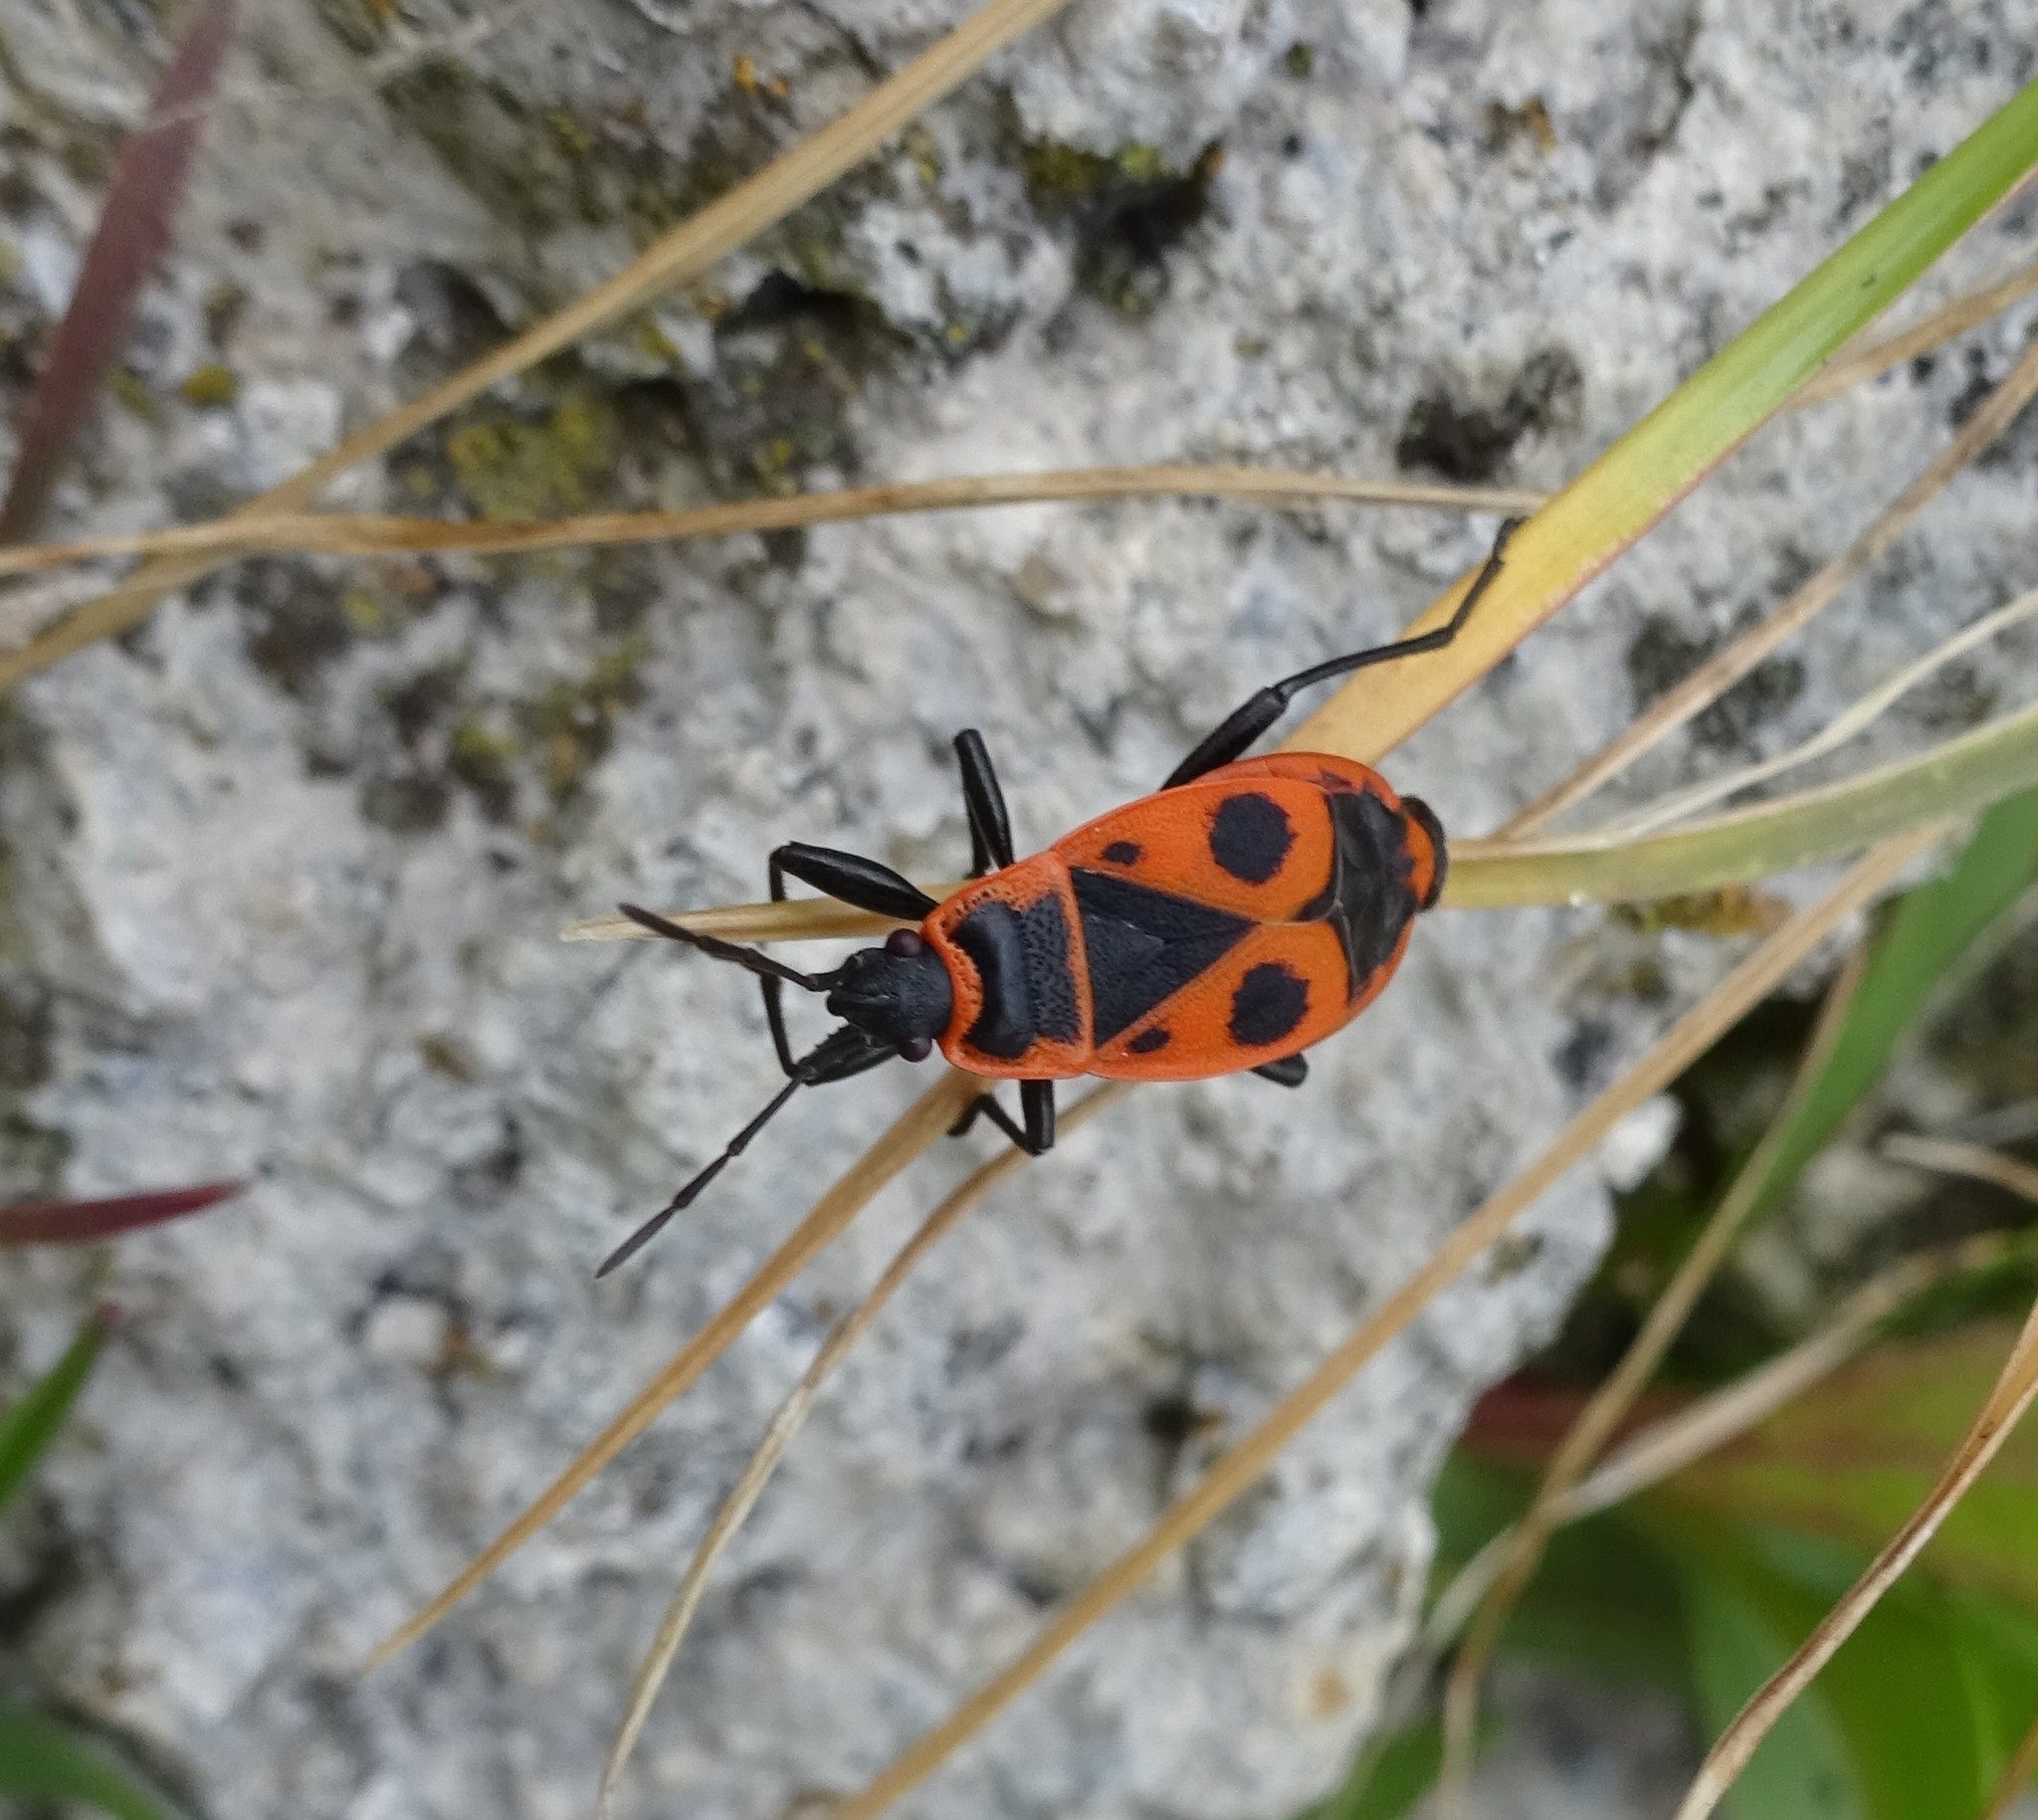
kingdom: Animalia
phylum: Arthropoda
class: Insecta
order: Hemiptera
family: Pyrrhocoridae
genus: Pyrrhocoris
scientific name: Pyrrhocoris apterus
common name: Firebug
